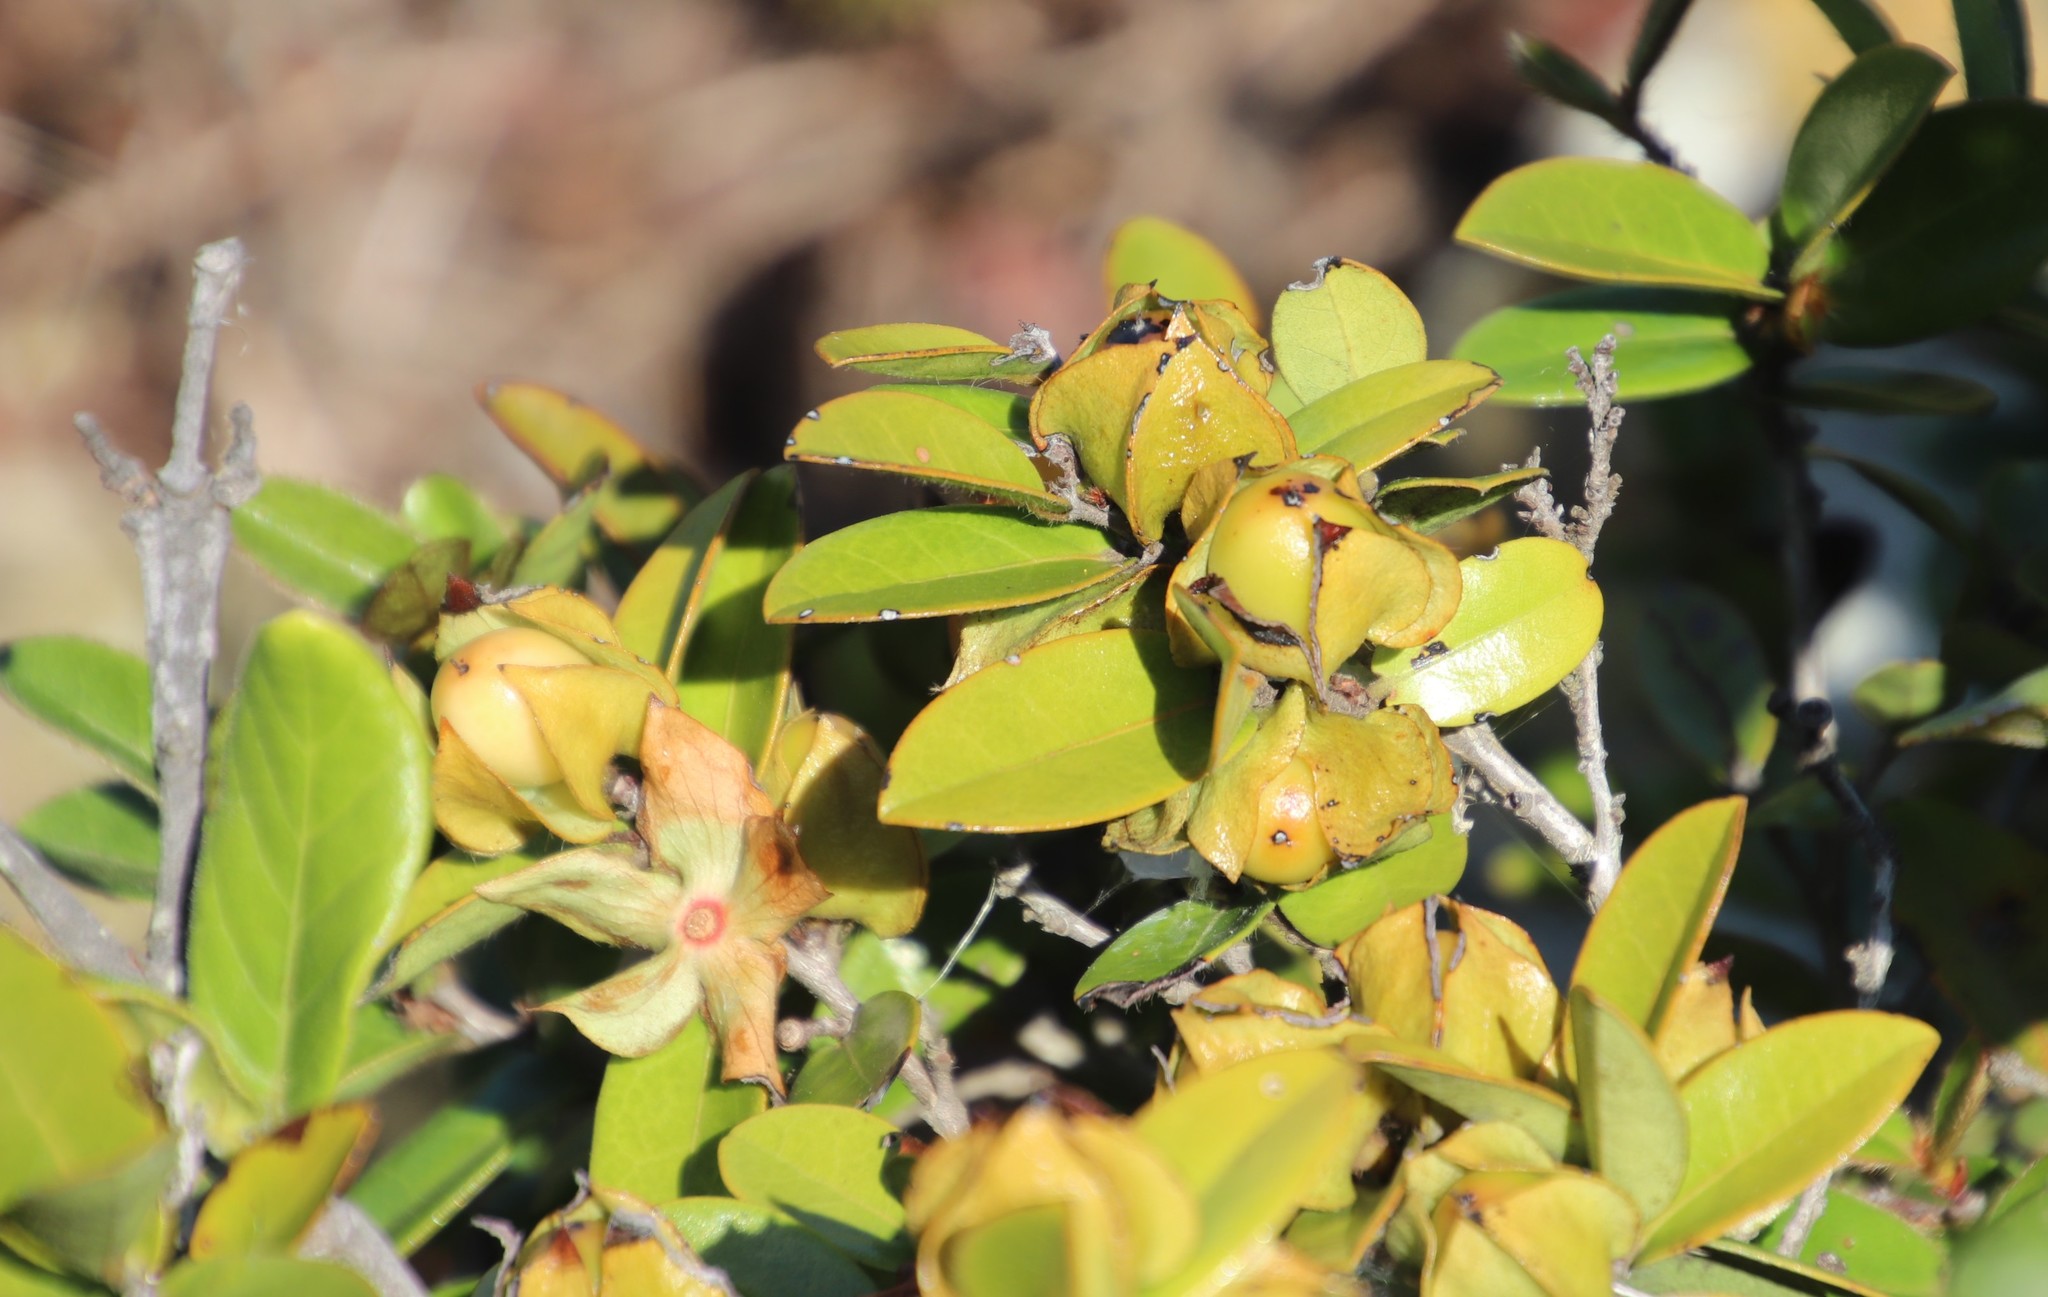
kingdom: Plantae
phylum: Tracheophyta
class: Magnoliopsida
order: Ericales
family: Ebenaceae
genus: Diospyros
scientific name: Diospyros scabrida
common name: Coastal bladder-nut
